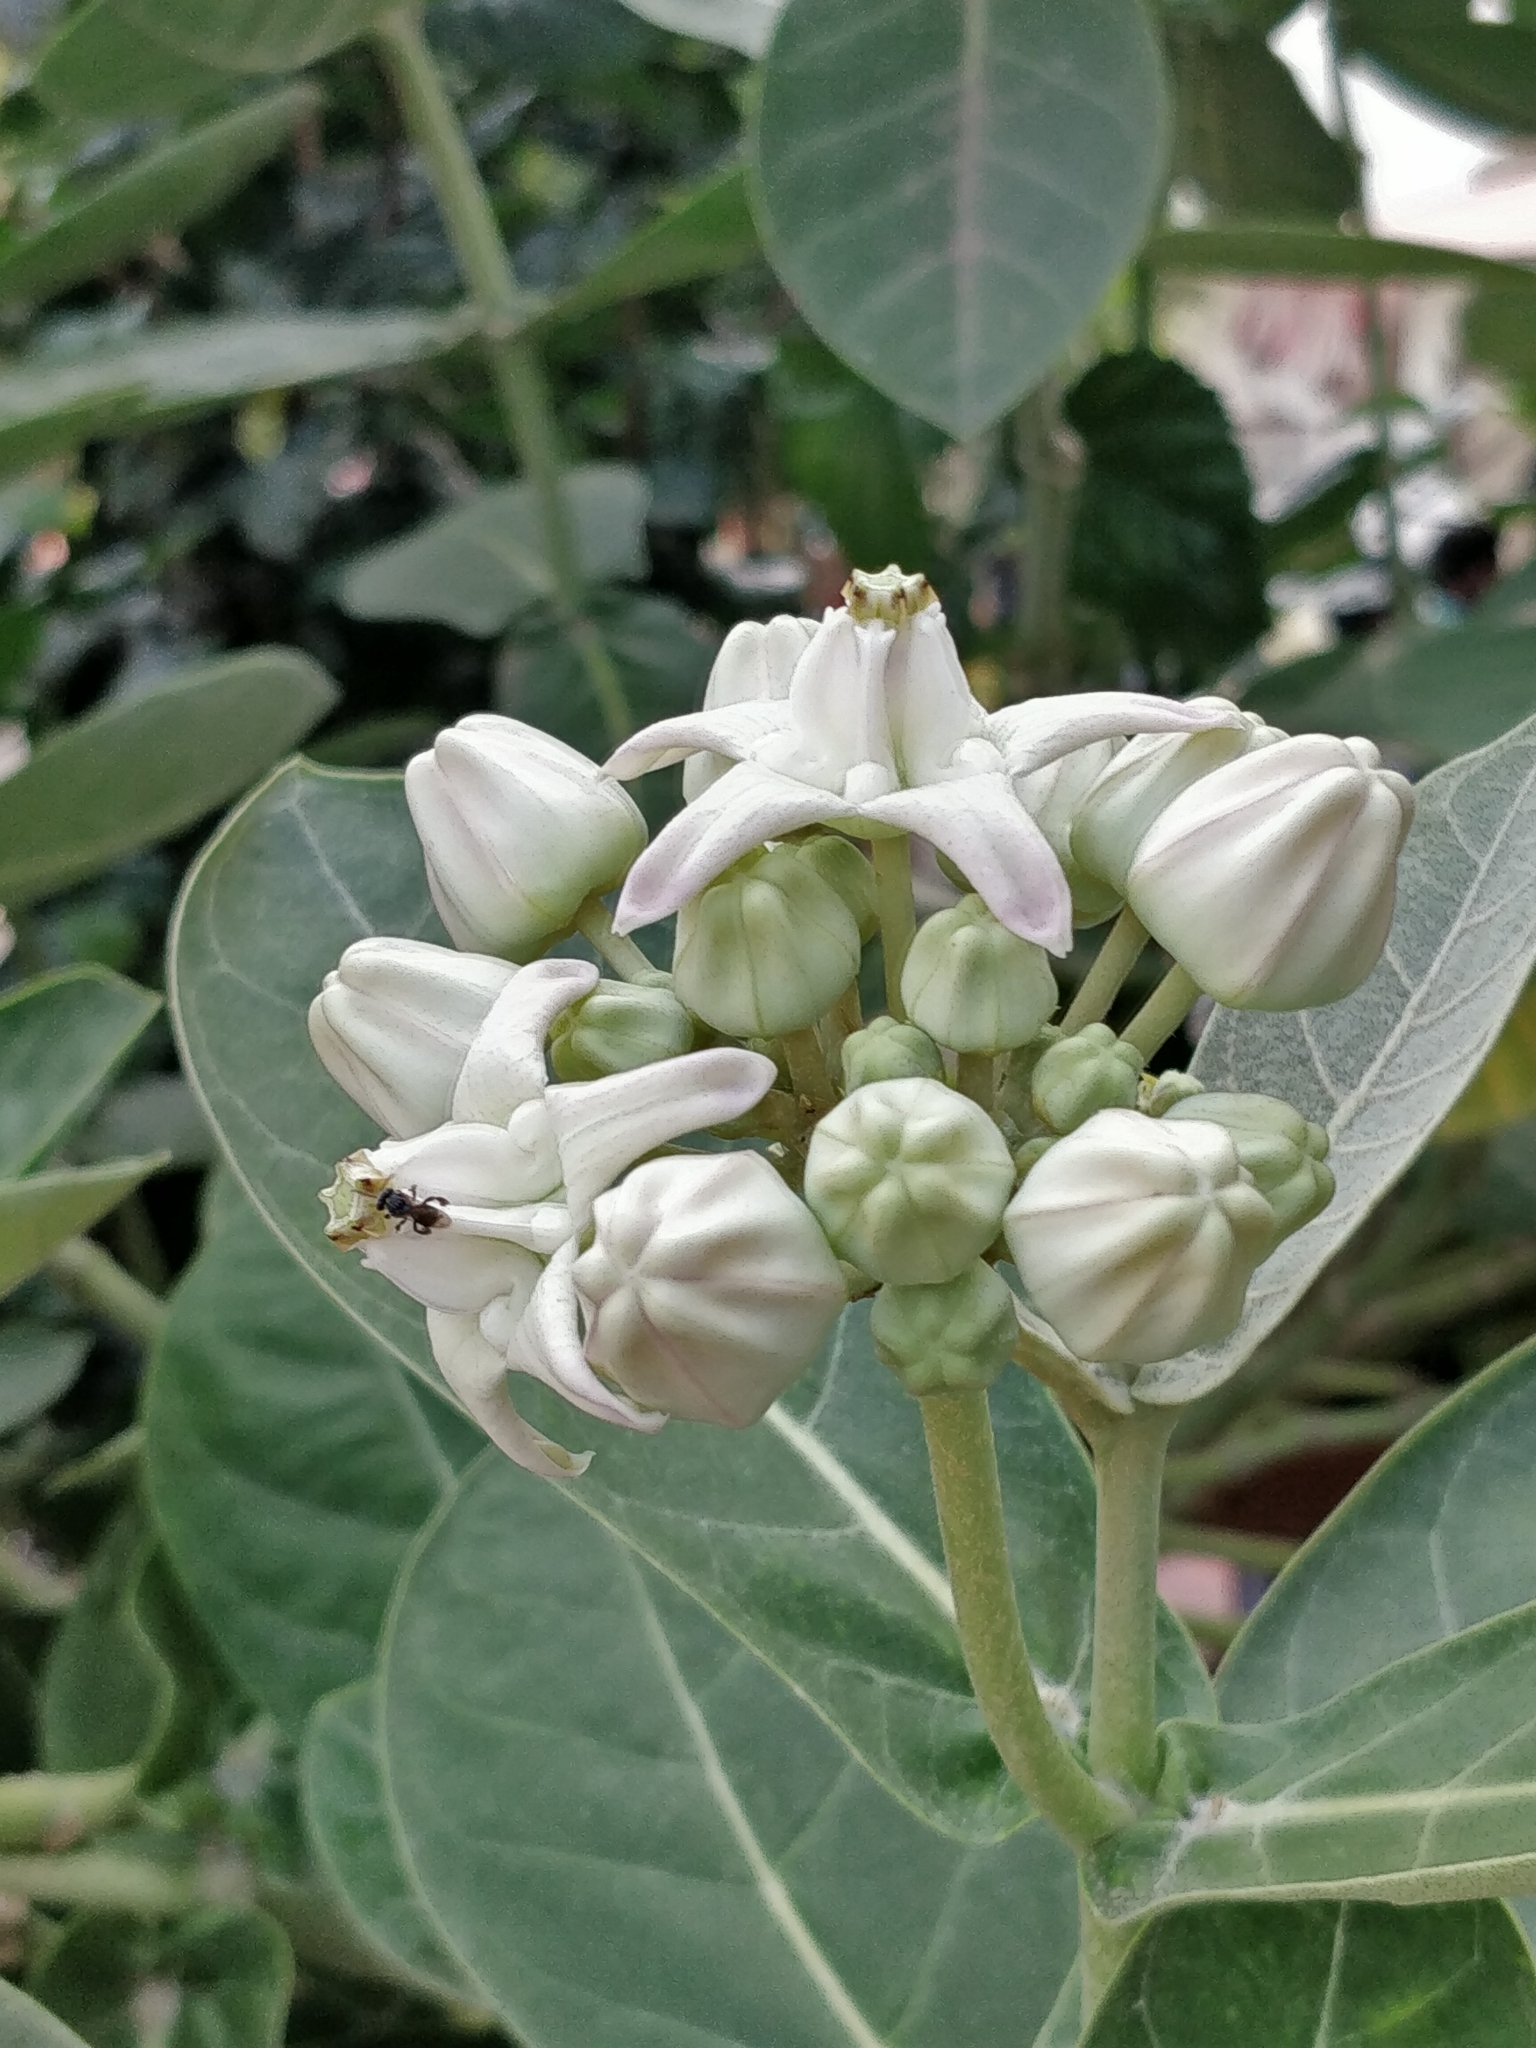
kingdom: Plantae
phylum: Tracheophyta
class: Magnoliopsida
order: Gentianales
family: Apocynaceae
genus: Calotropis
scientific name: Calotropis gigantea
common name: Crown flower
